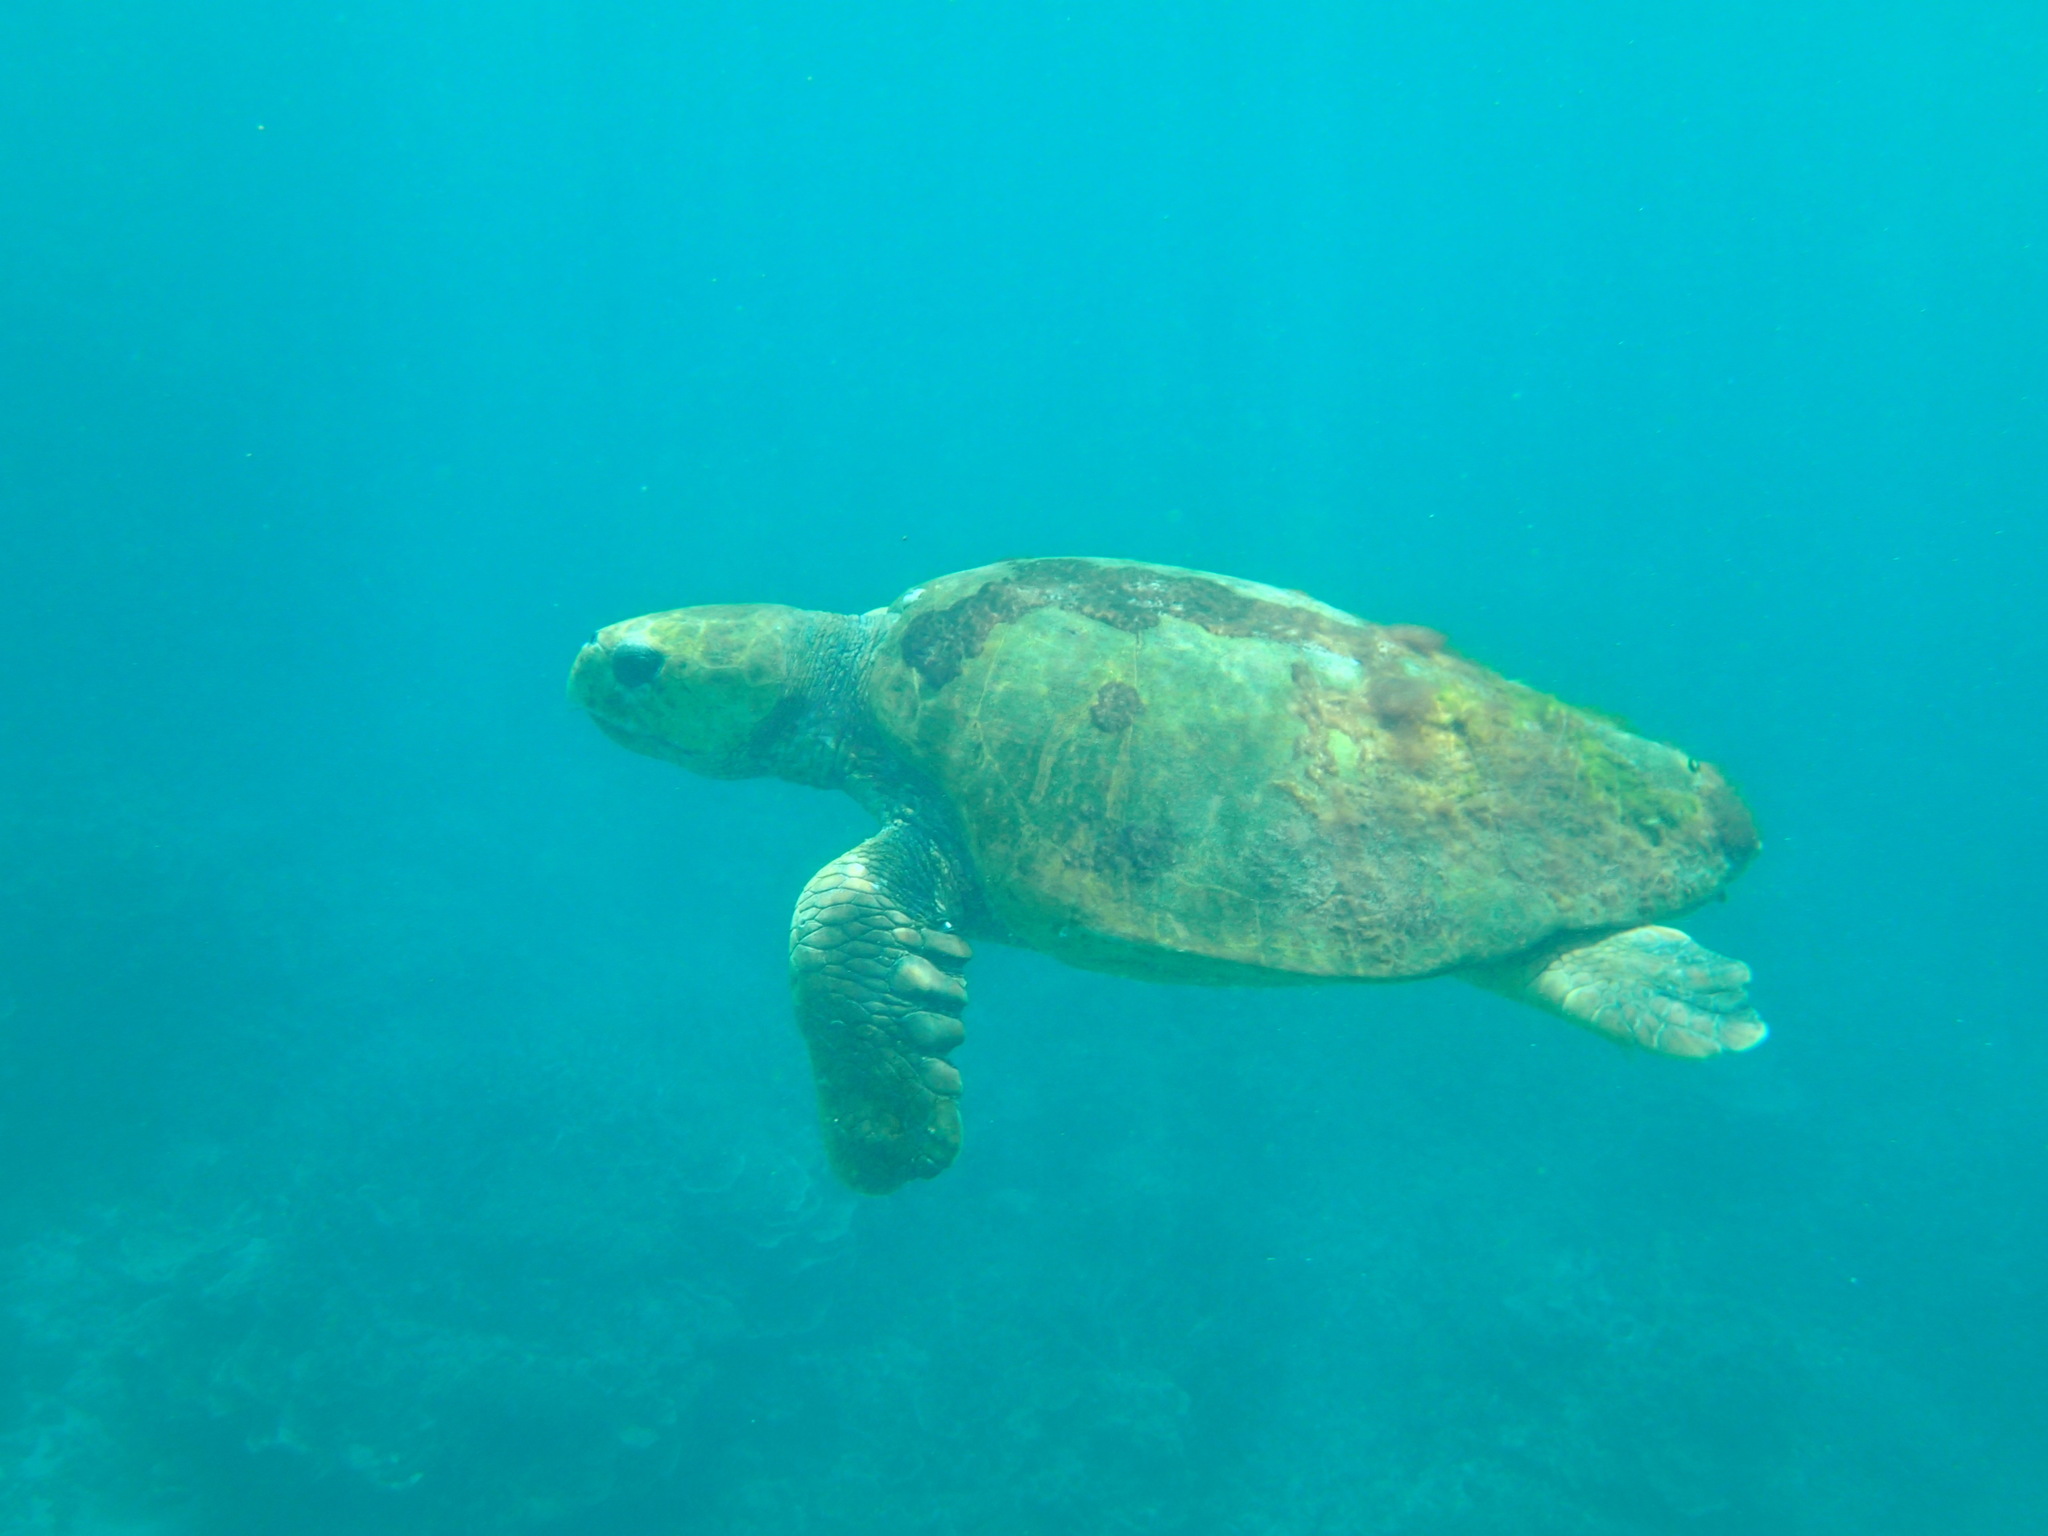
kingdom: Animalia
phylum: Chordata
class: Testudines
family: Cheloniidae
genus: Caretta
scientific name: Caretta caretta
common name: Loggerhead sea turtle
